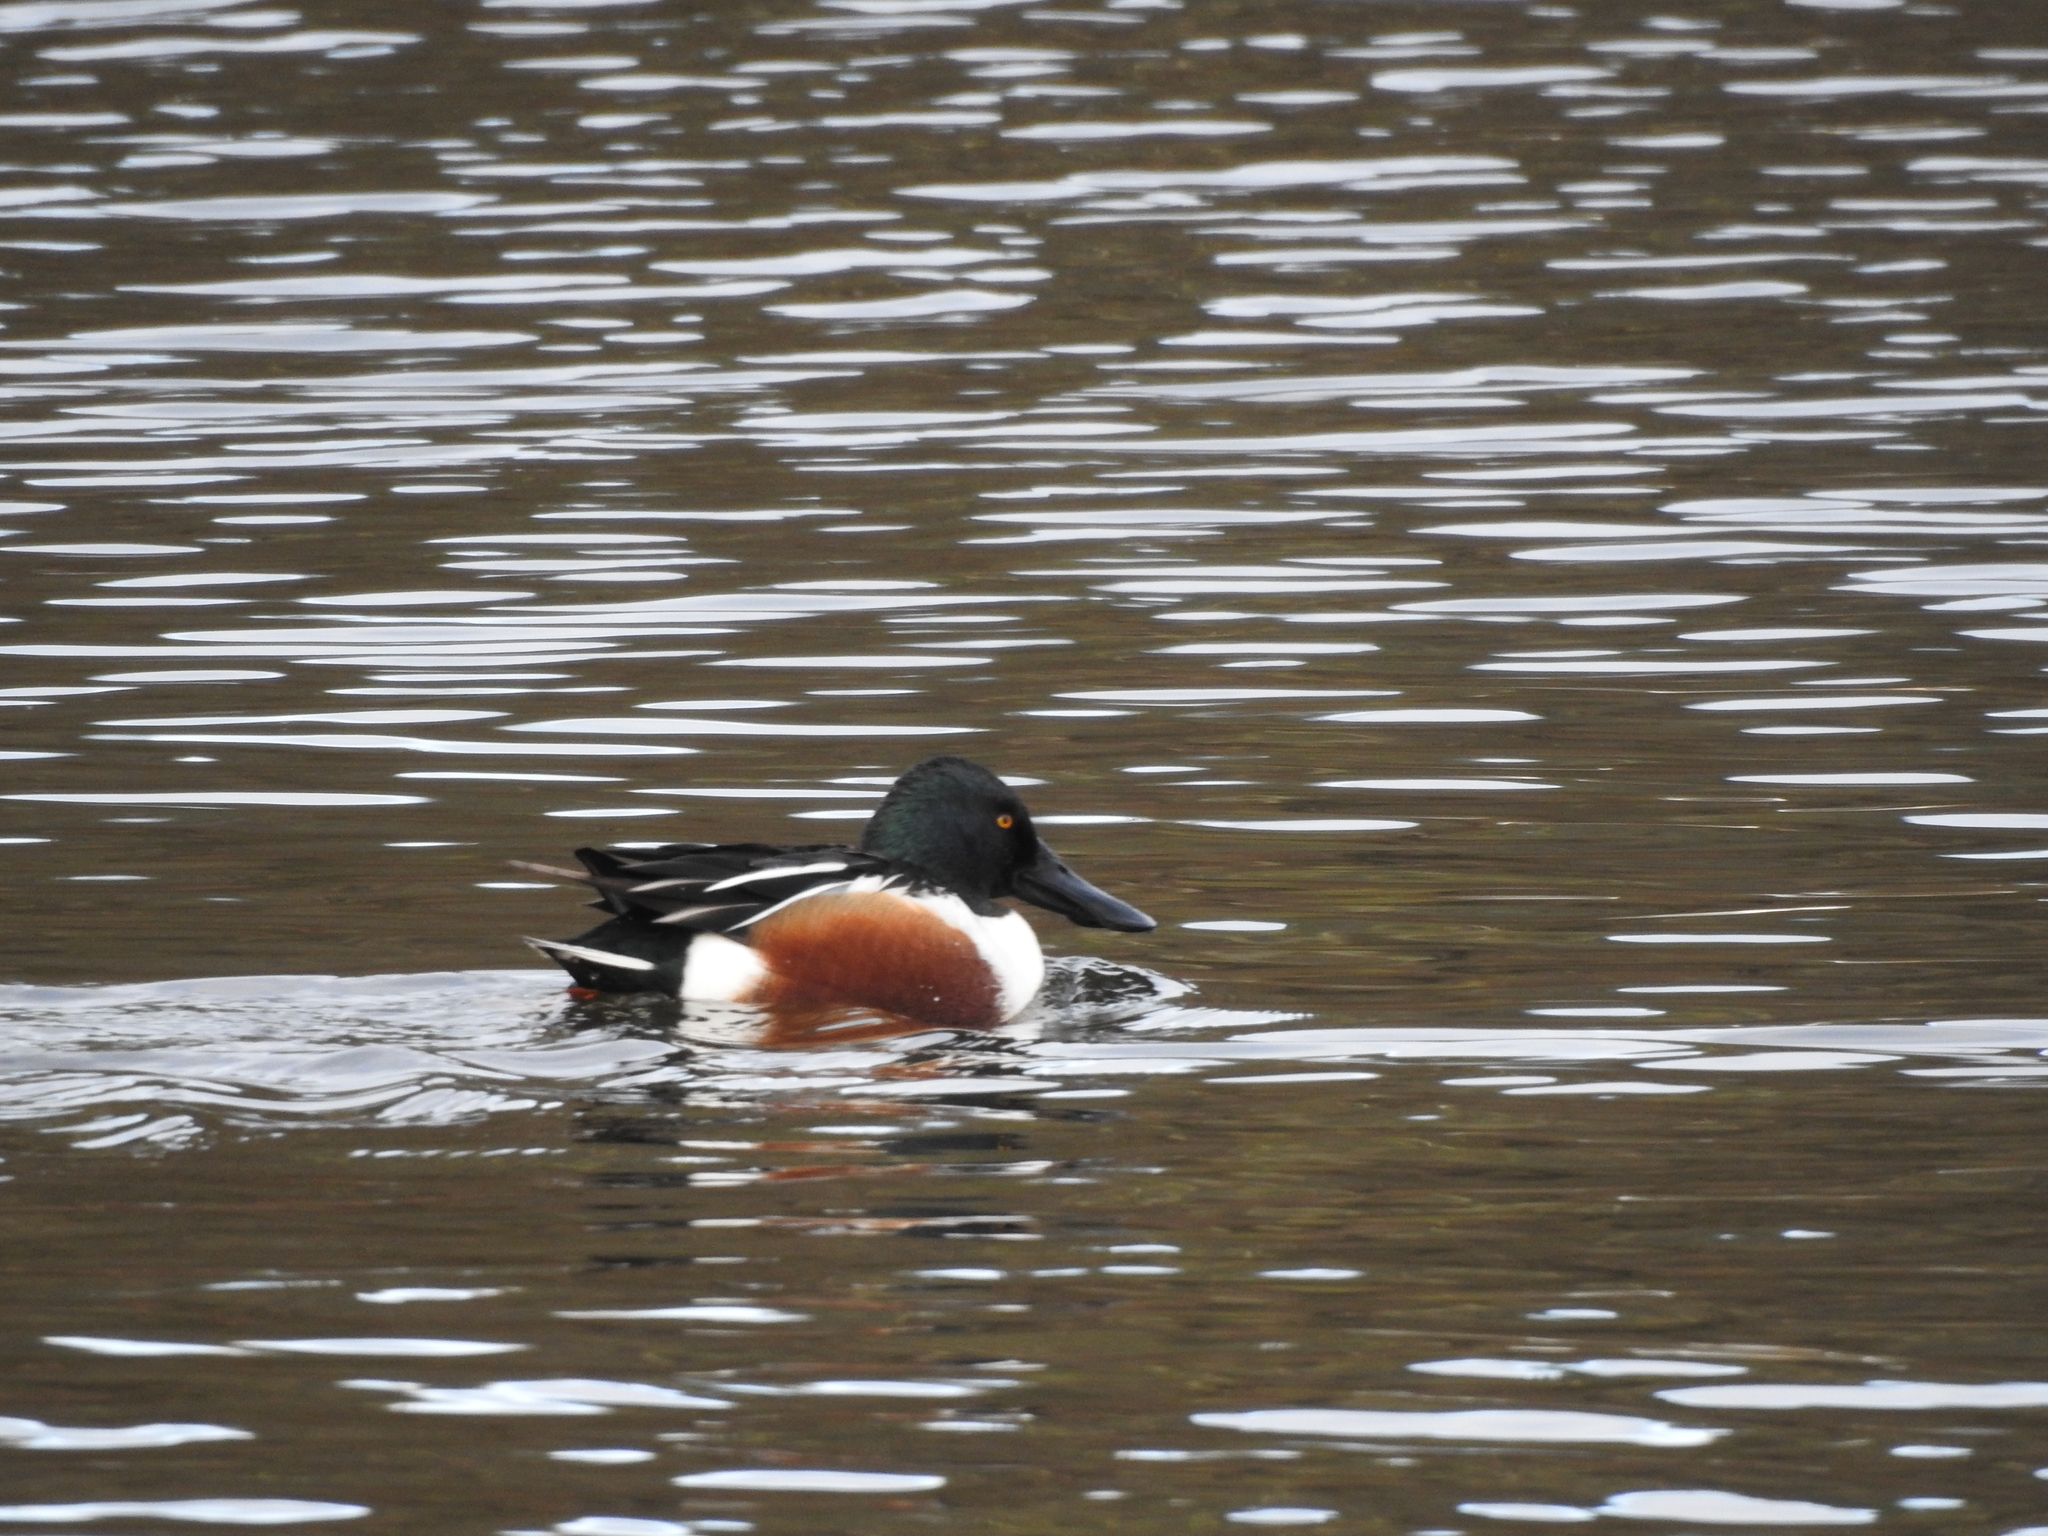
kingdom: Animalia
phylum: Chordata
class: Aves
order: Anseriformes
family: Anatidae
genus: Spatula
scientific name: Spatula clypeata
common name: Northern shoveler
